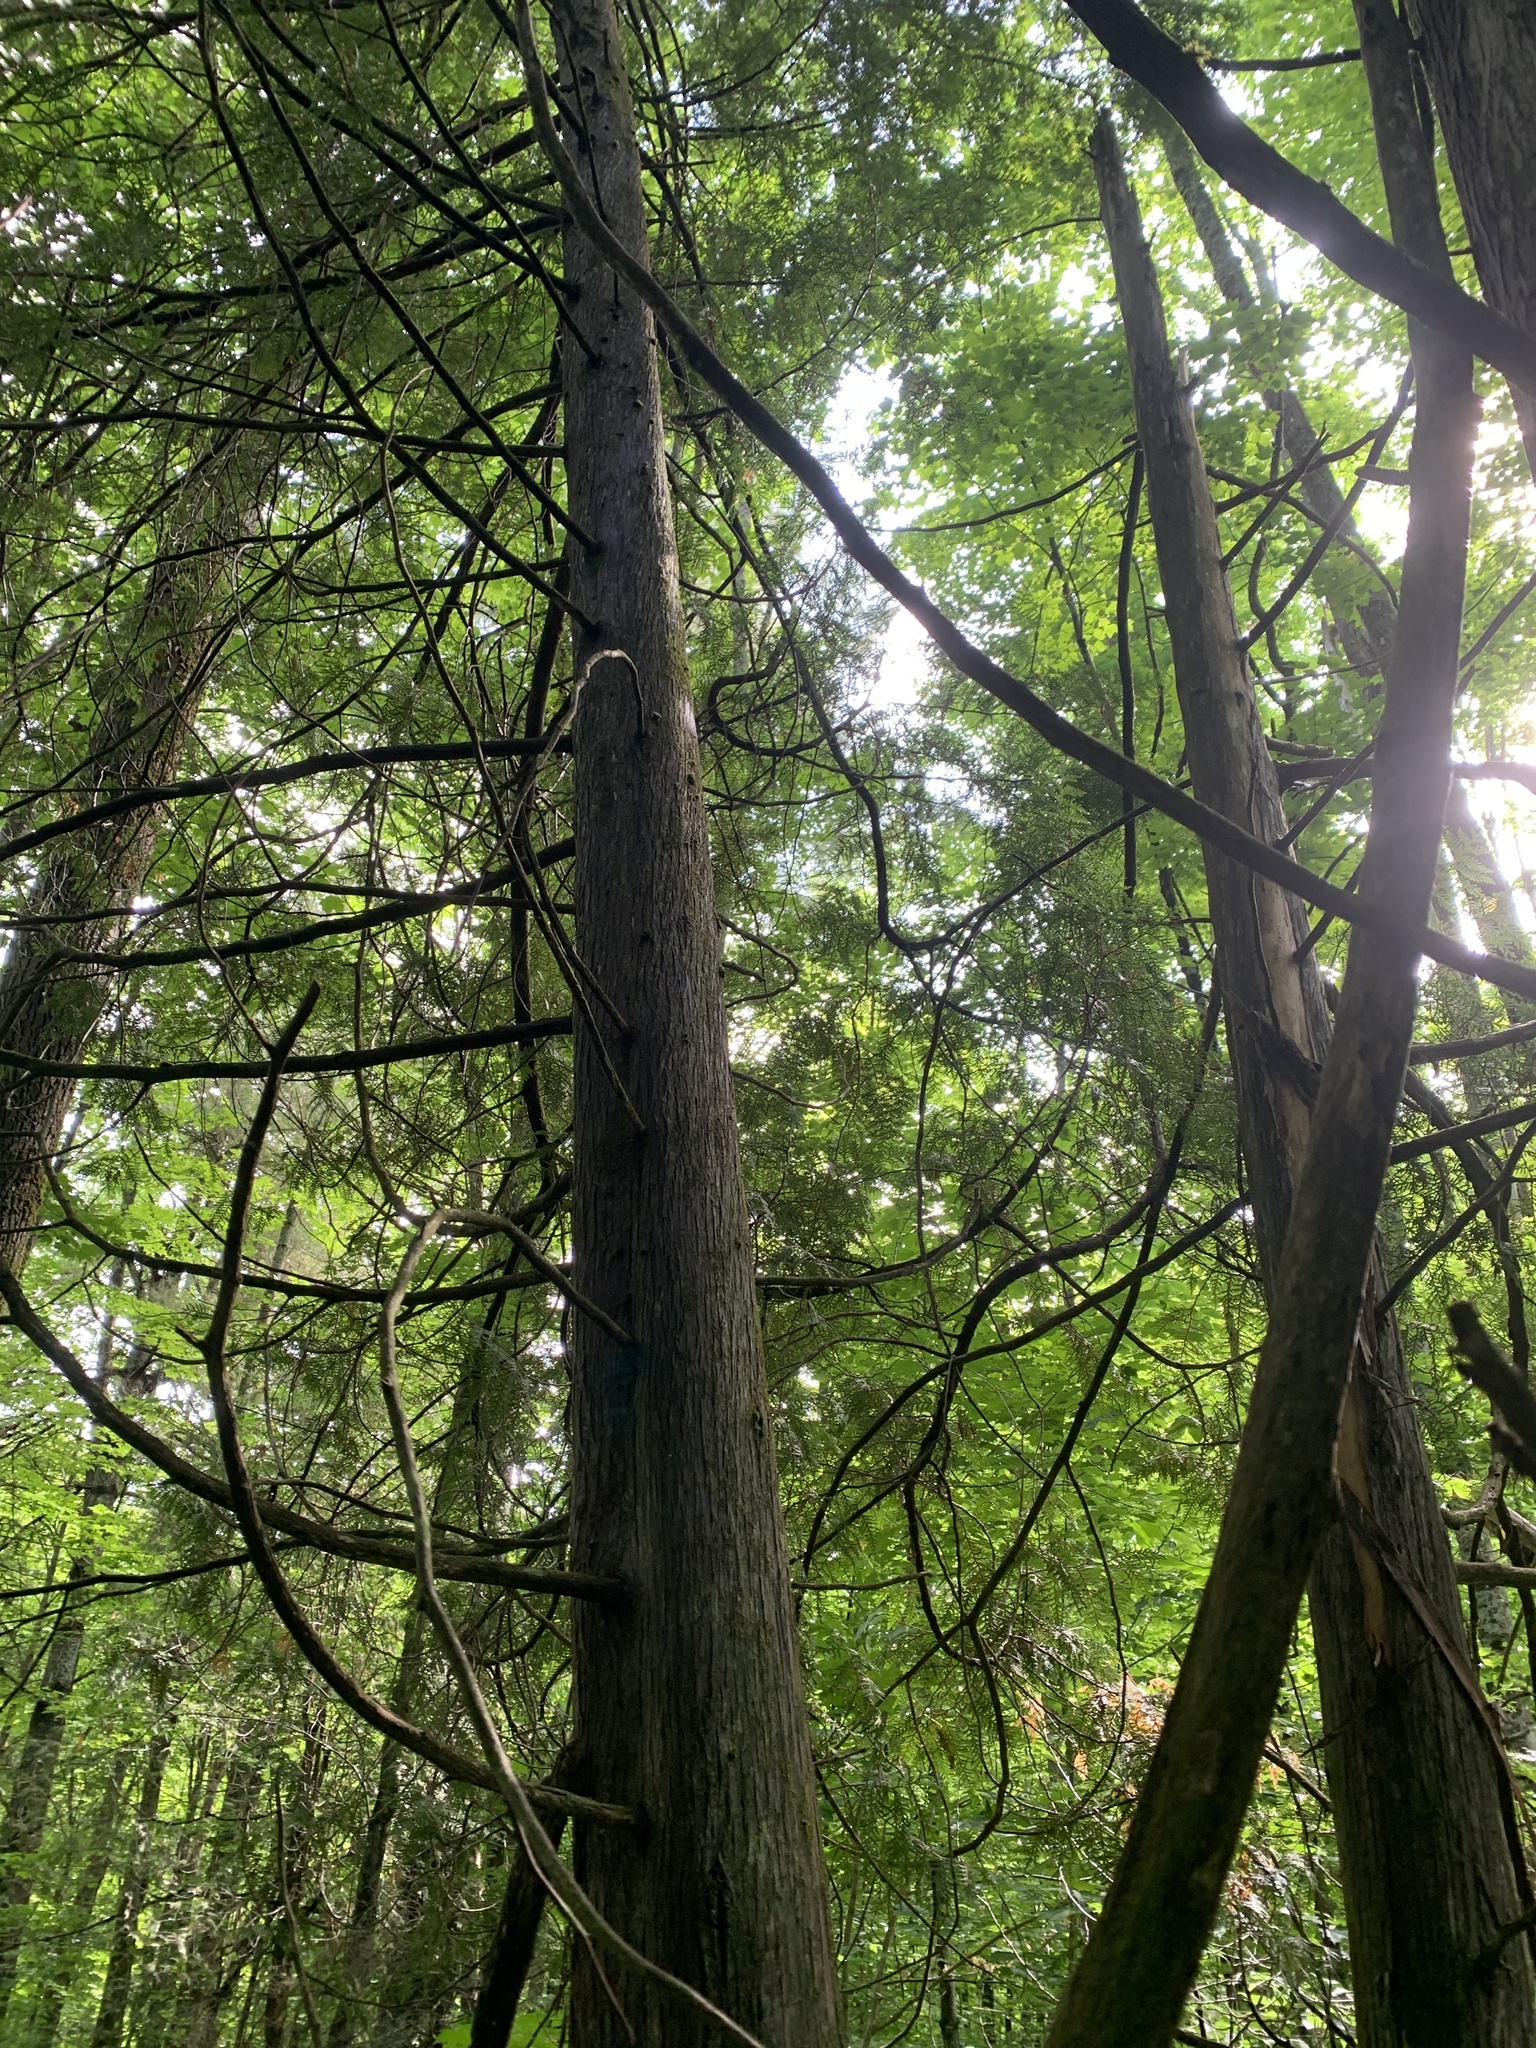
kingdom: Plantae
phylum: Tracheophyta
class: Pinopsida
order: Pinales
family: Cupressaceae
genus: Thuja
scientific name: Thuja occidentalis
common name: Northern white-cedar
